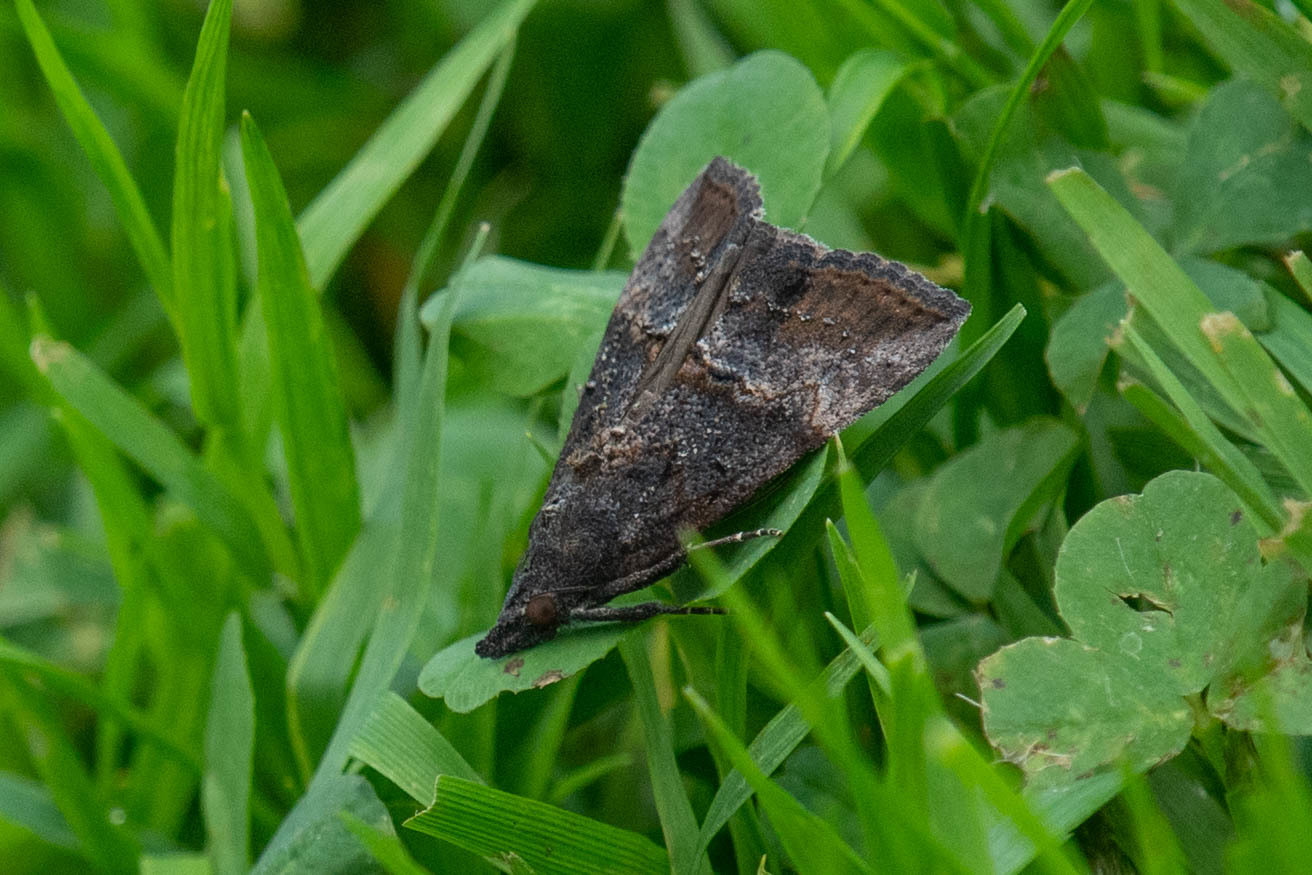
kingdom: Animalia
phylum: Arthropoda
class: Insecta
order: Lepidoptera
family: Erebidae
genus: Hypena
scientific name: Hypena scabra
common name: Green cloverworm
